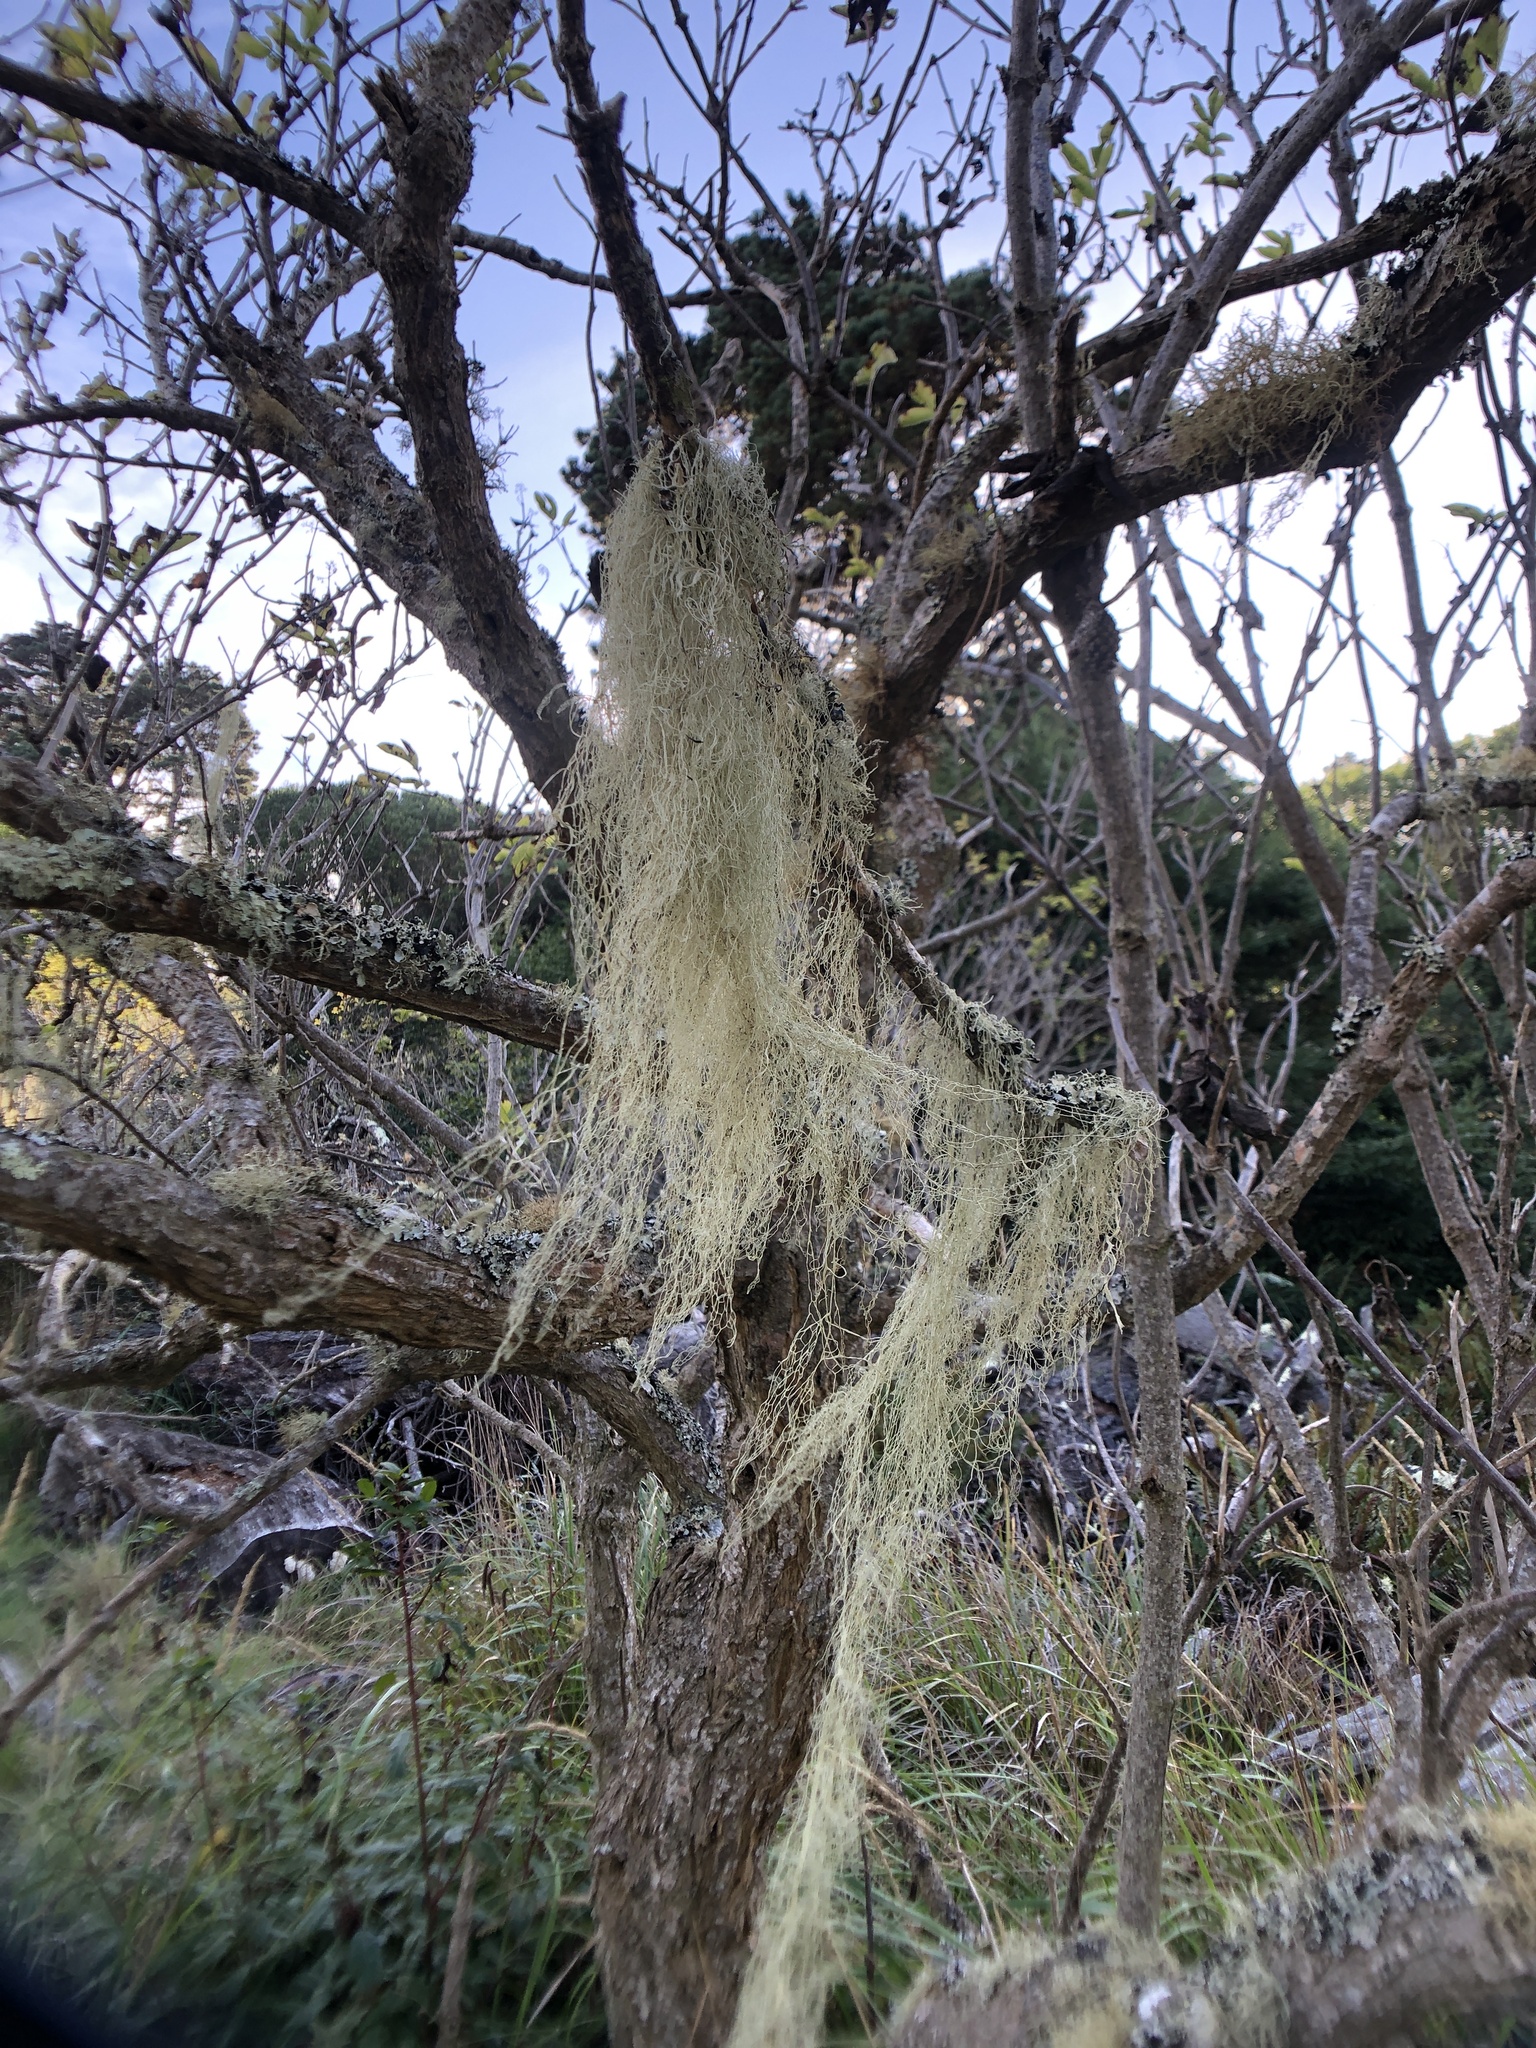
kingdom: Fungi
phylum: Ascomycota
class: Lecanoromycetes
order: Lecanorales
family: Ramalinaceae
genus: Ramalina
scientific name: Ramalina menziesii
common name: Lace lichen
